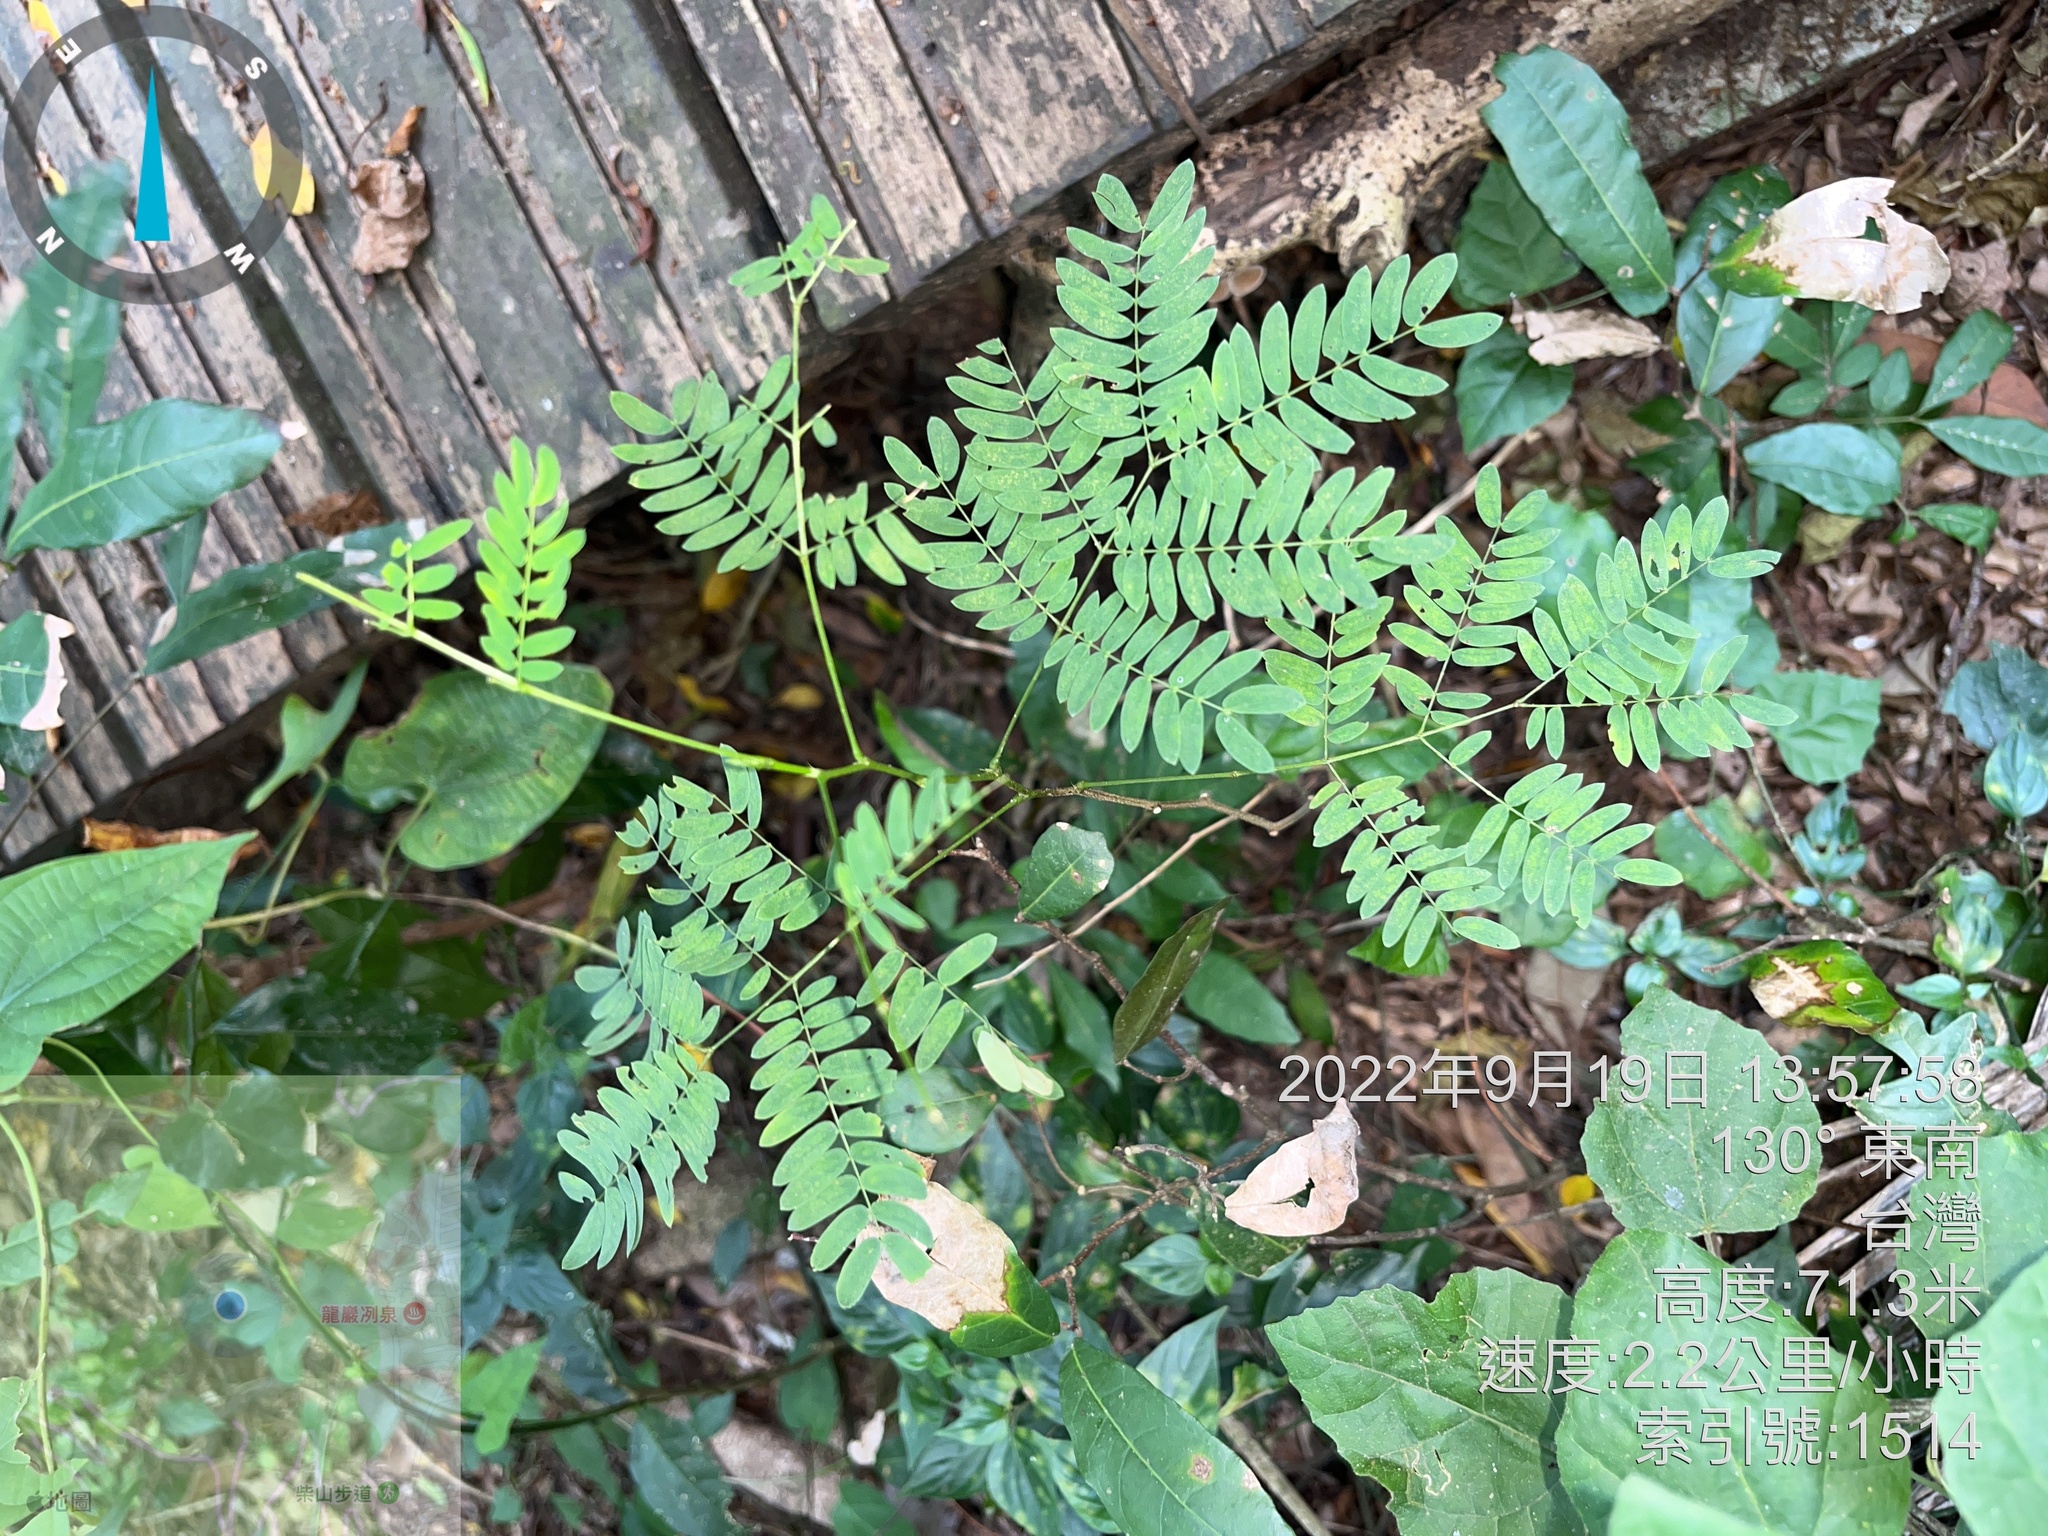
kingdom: Plantae
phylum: Tracheophyta
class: Magnoliopsida
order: Fabales
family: Fabaceae
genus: Leucaena
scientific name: Leucaena leucocephala
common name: White leadtree
